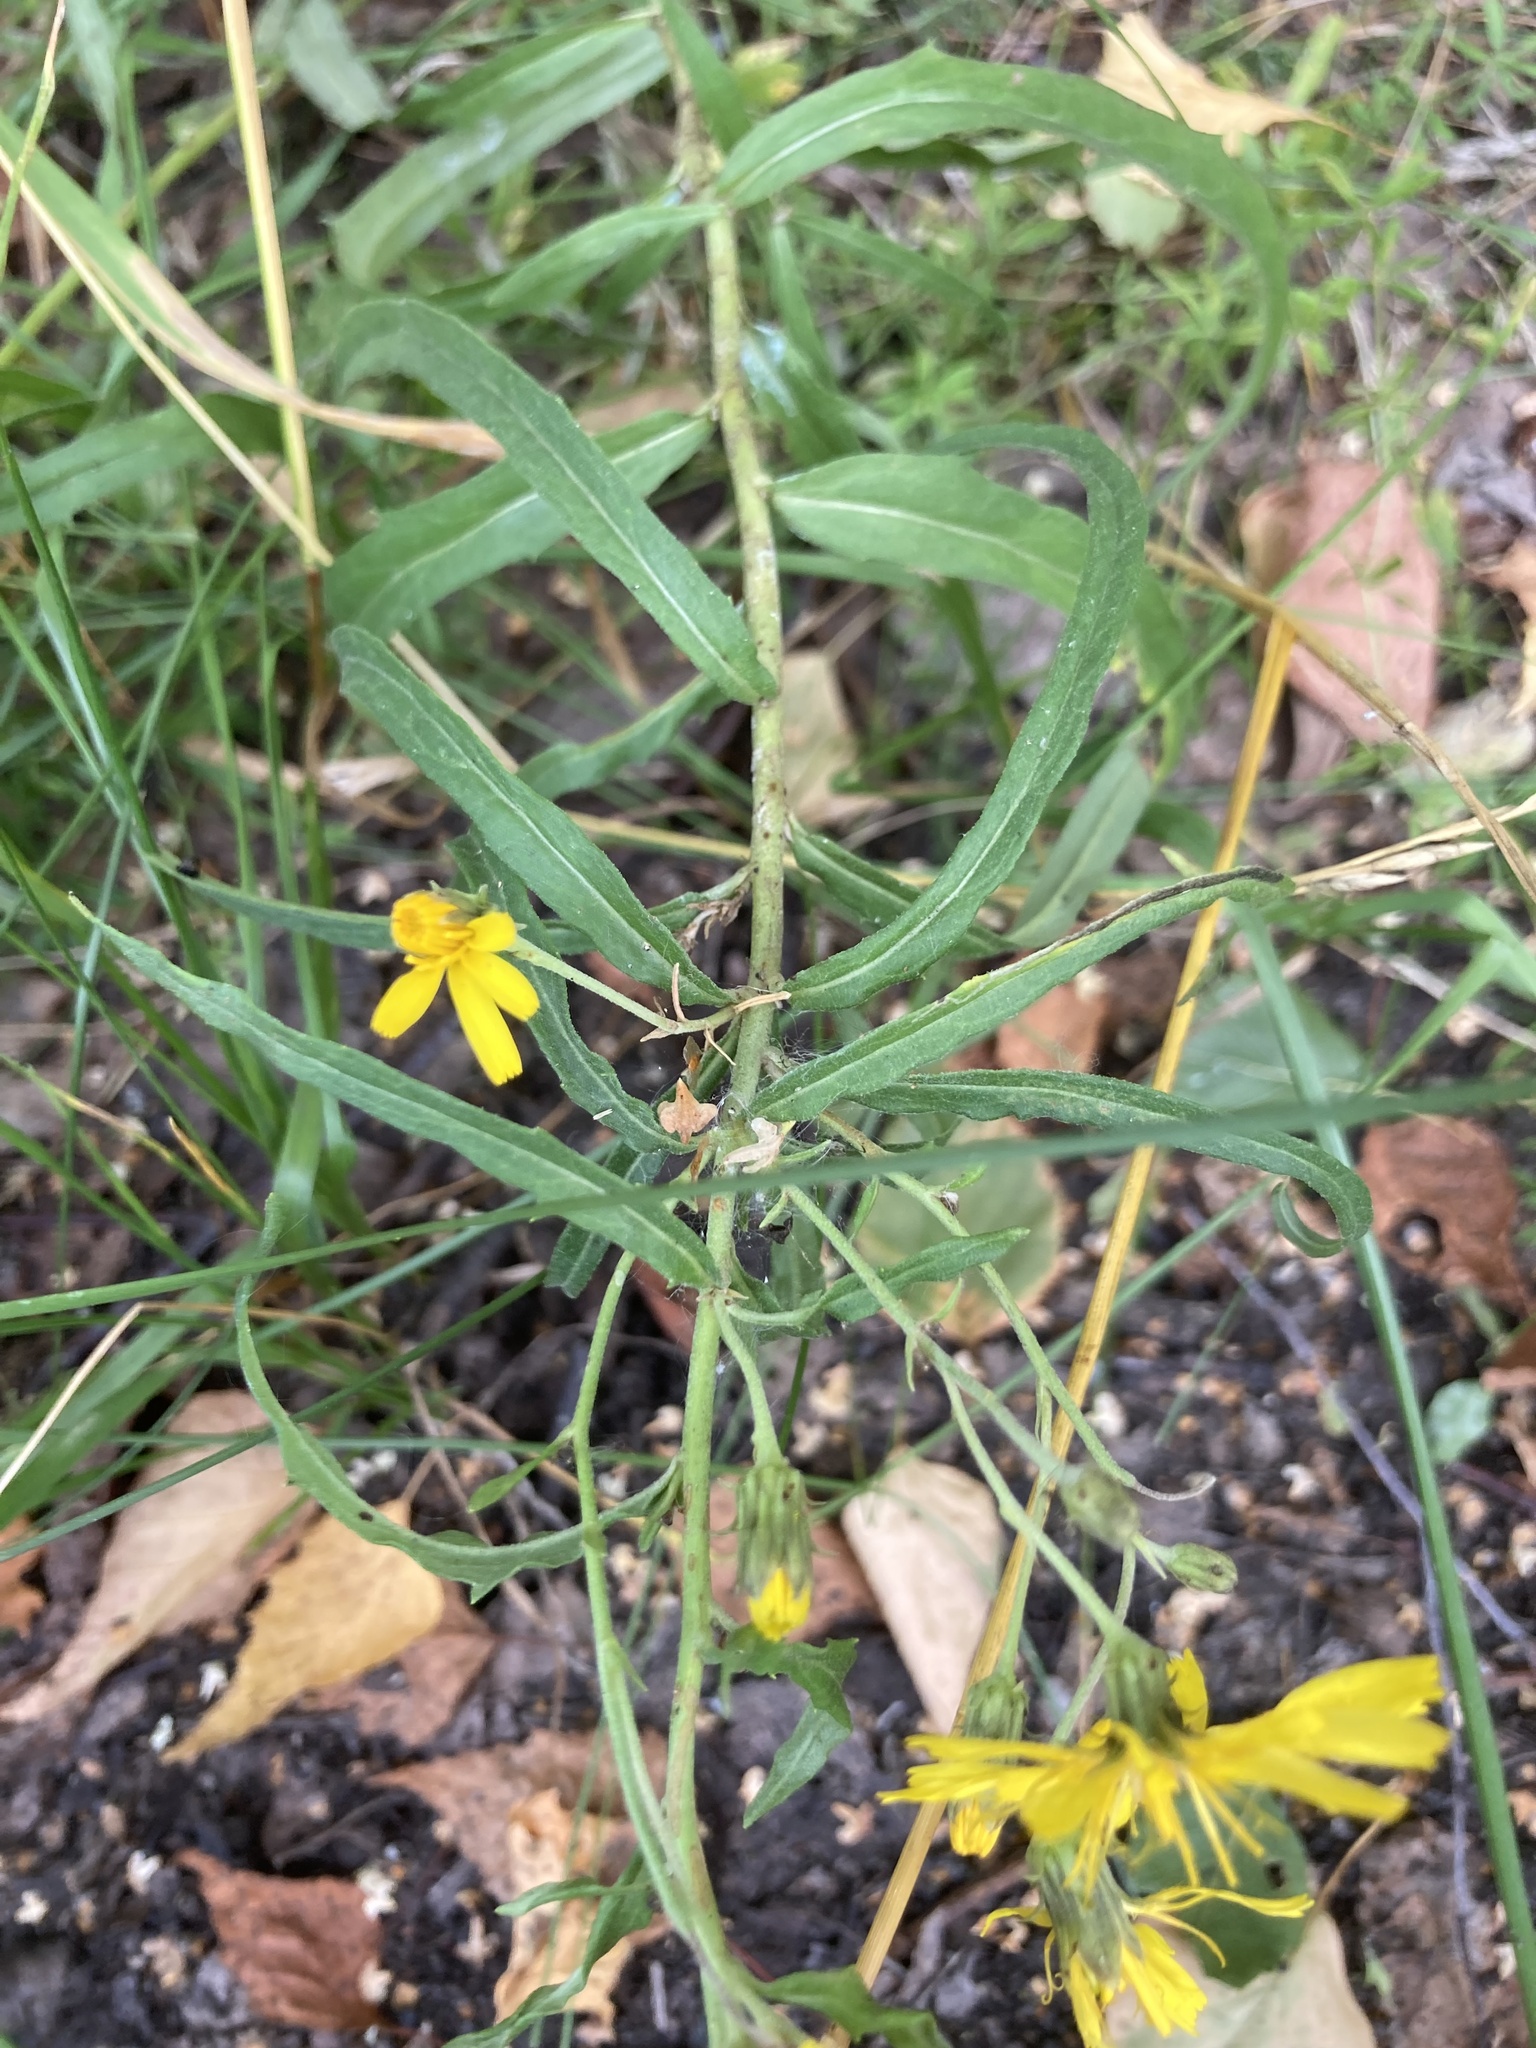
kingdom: Plantae
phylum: Tracheophyta
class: Magnoliopsida
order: Asterales
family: Asteraceae
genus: Hieracium
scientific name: Hieracium umbellatum
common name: Northern hawkweed
